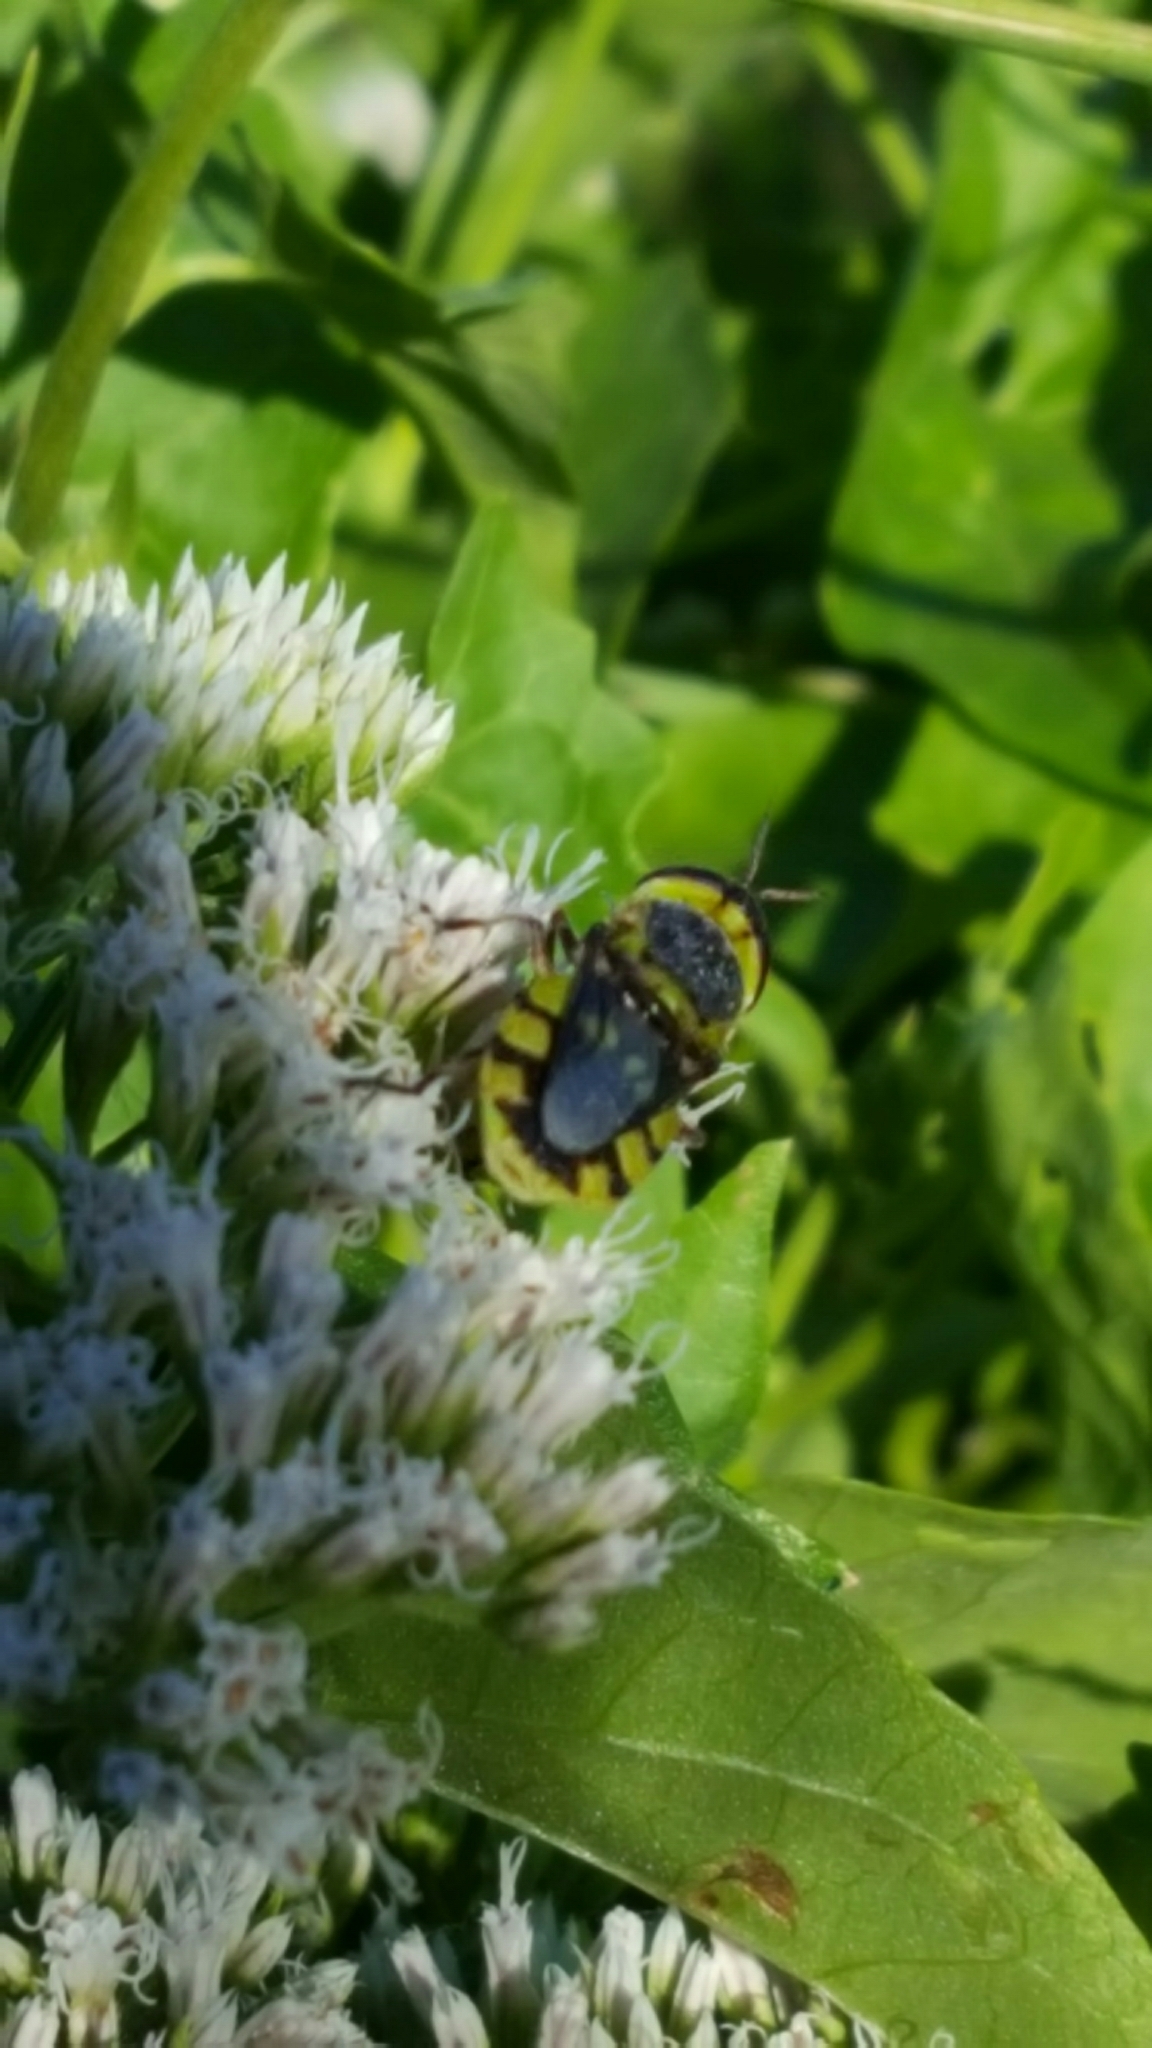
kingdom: Animalia
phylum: Arthropoda
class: Insecta
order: Diptera
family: Stratiomyidae
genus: Hedriodiscus
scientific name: Hedriodiscus truquii
